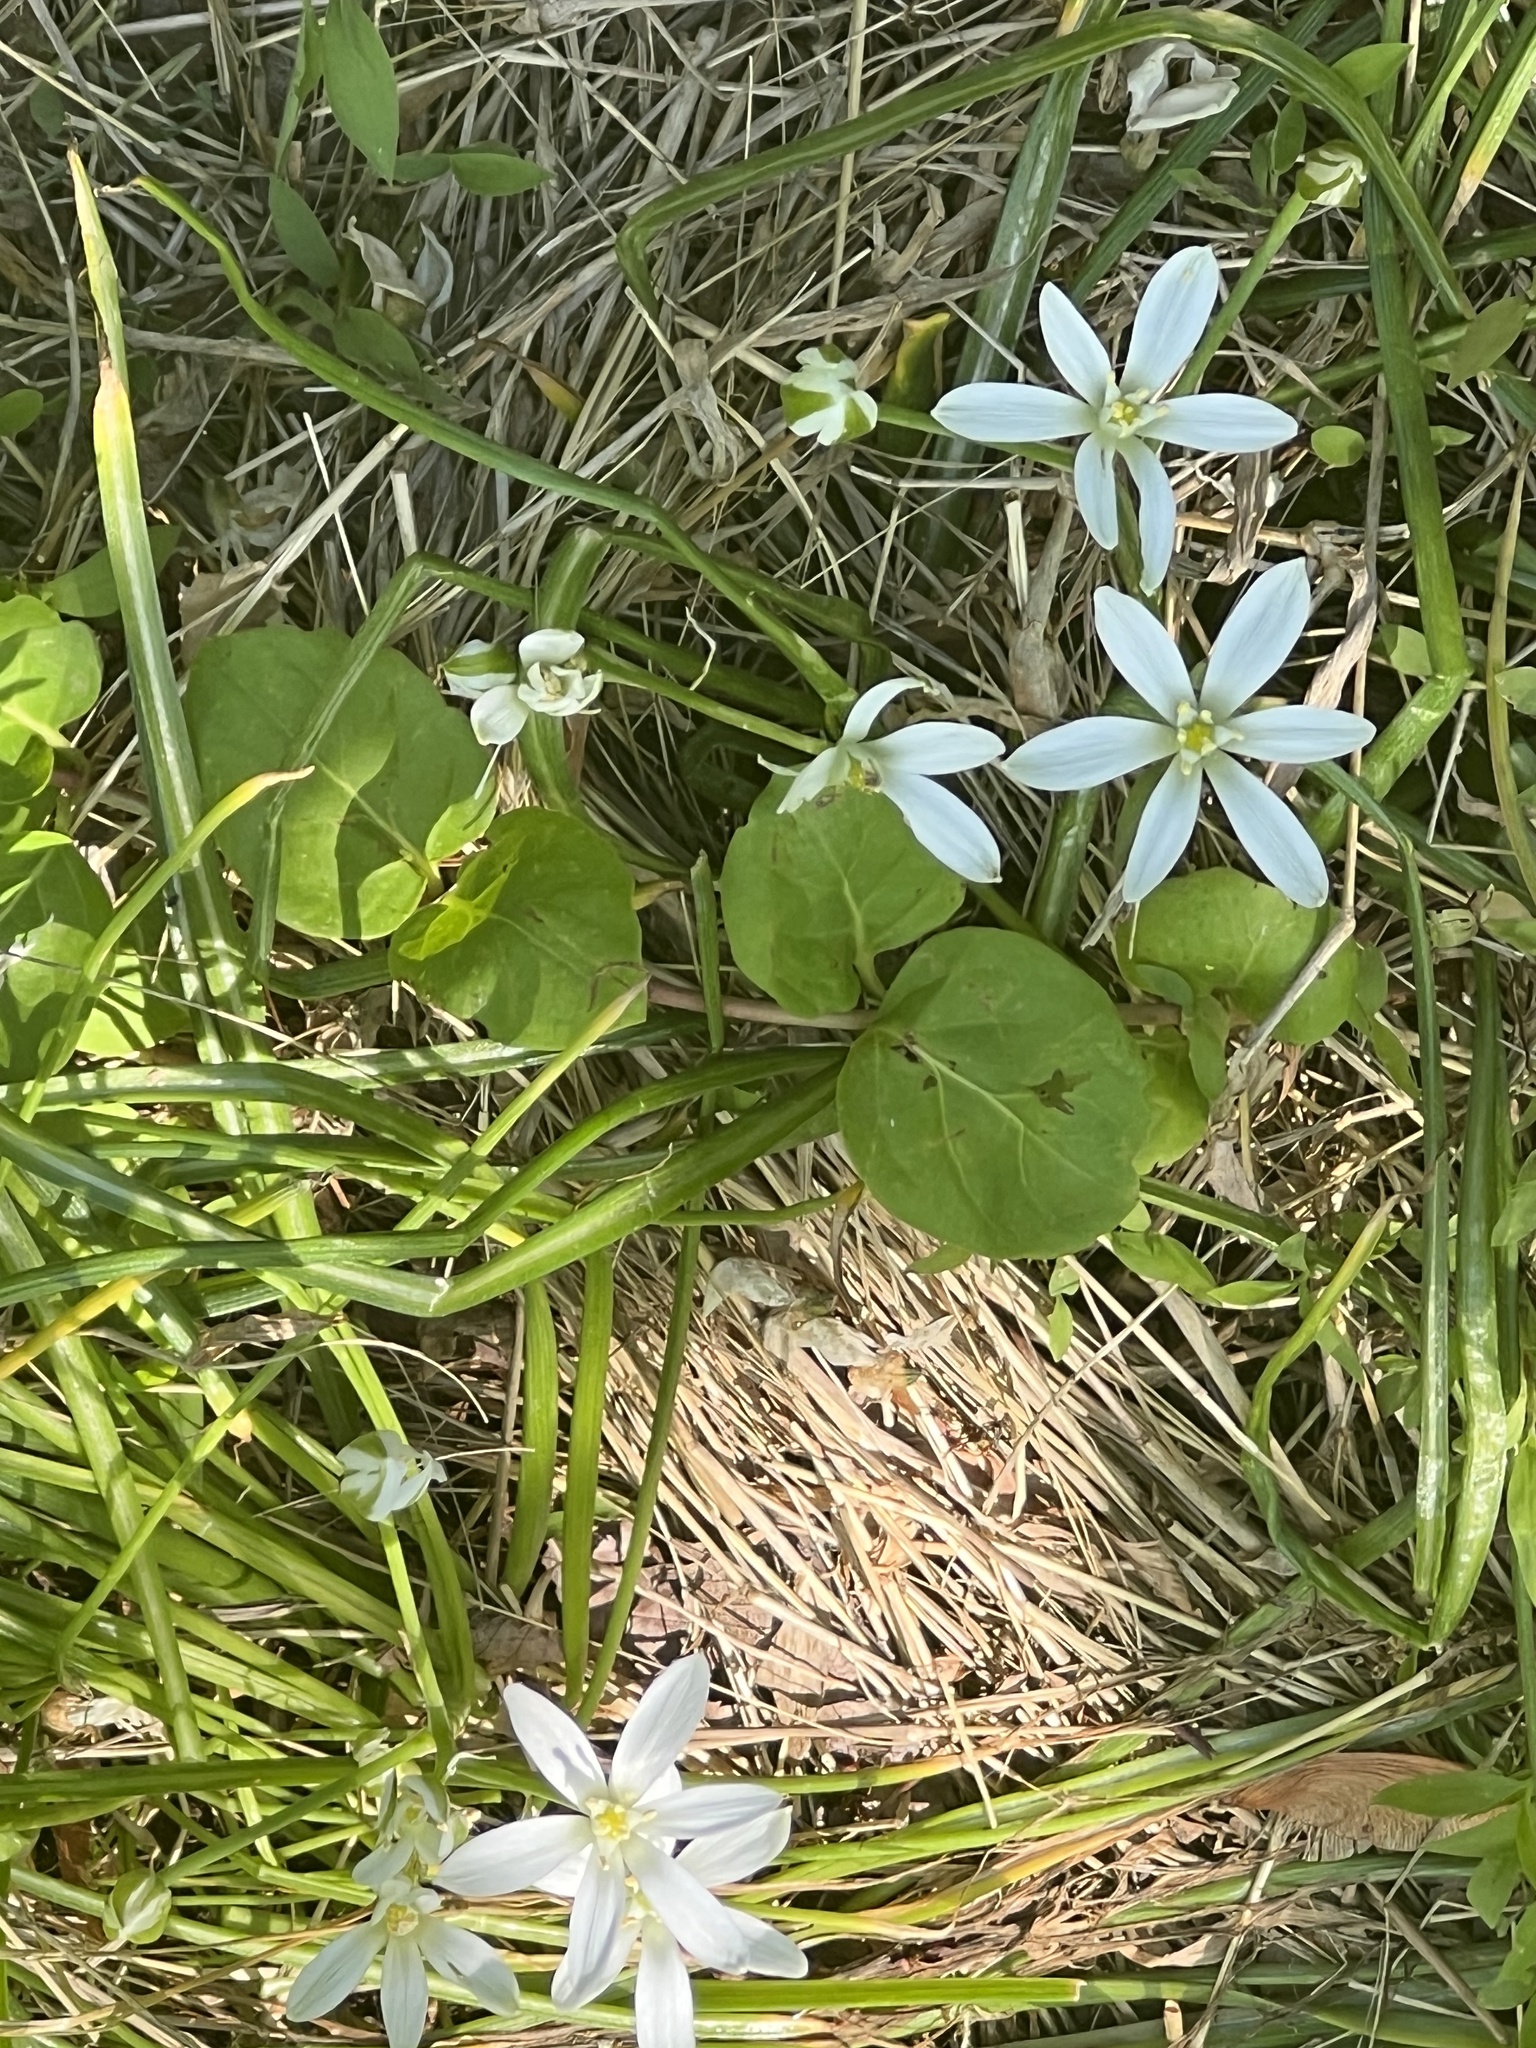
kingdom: Plantae
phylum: Tracheophyta
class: Liliopsida
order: Asparagales
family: Asparagaceae
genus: Ornithogalum
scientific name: Ornithogalum umbellatum
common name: Garden star-of-bethlehem
